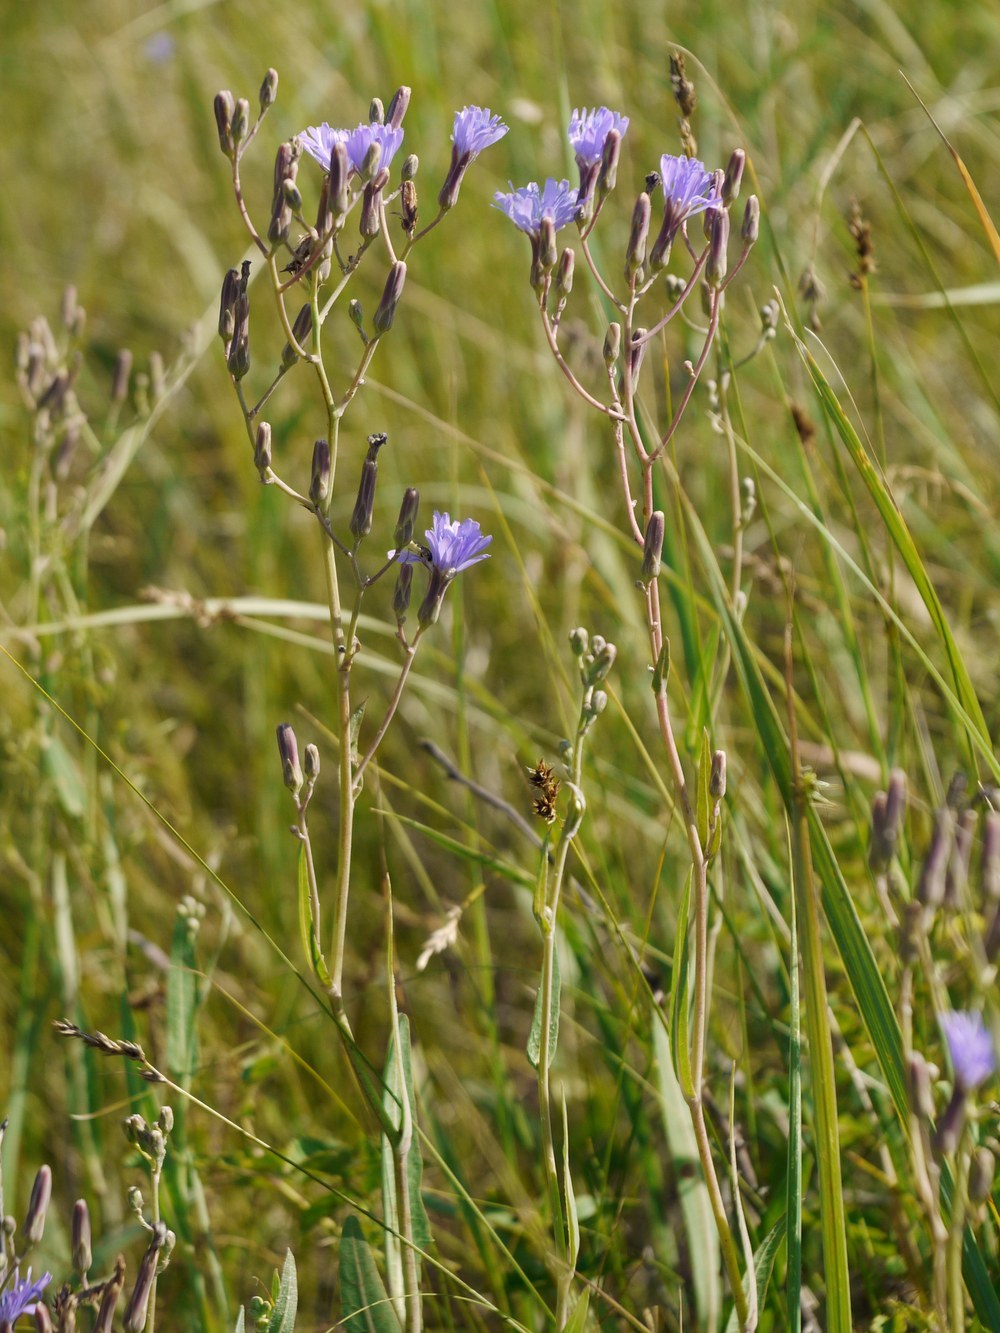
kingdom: Plantae
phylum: Tracheophyta
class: Magnoliopsida
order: Asterales
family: Asteraceae
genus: Lactuca
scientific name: Lactuca tatarica
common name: Blue lettuce
